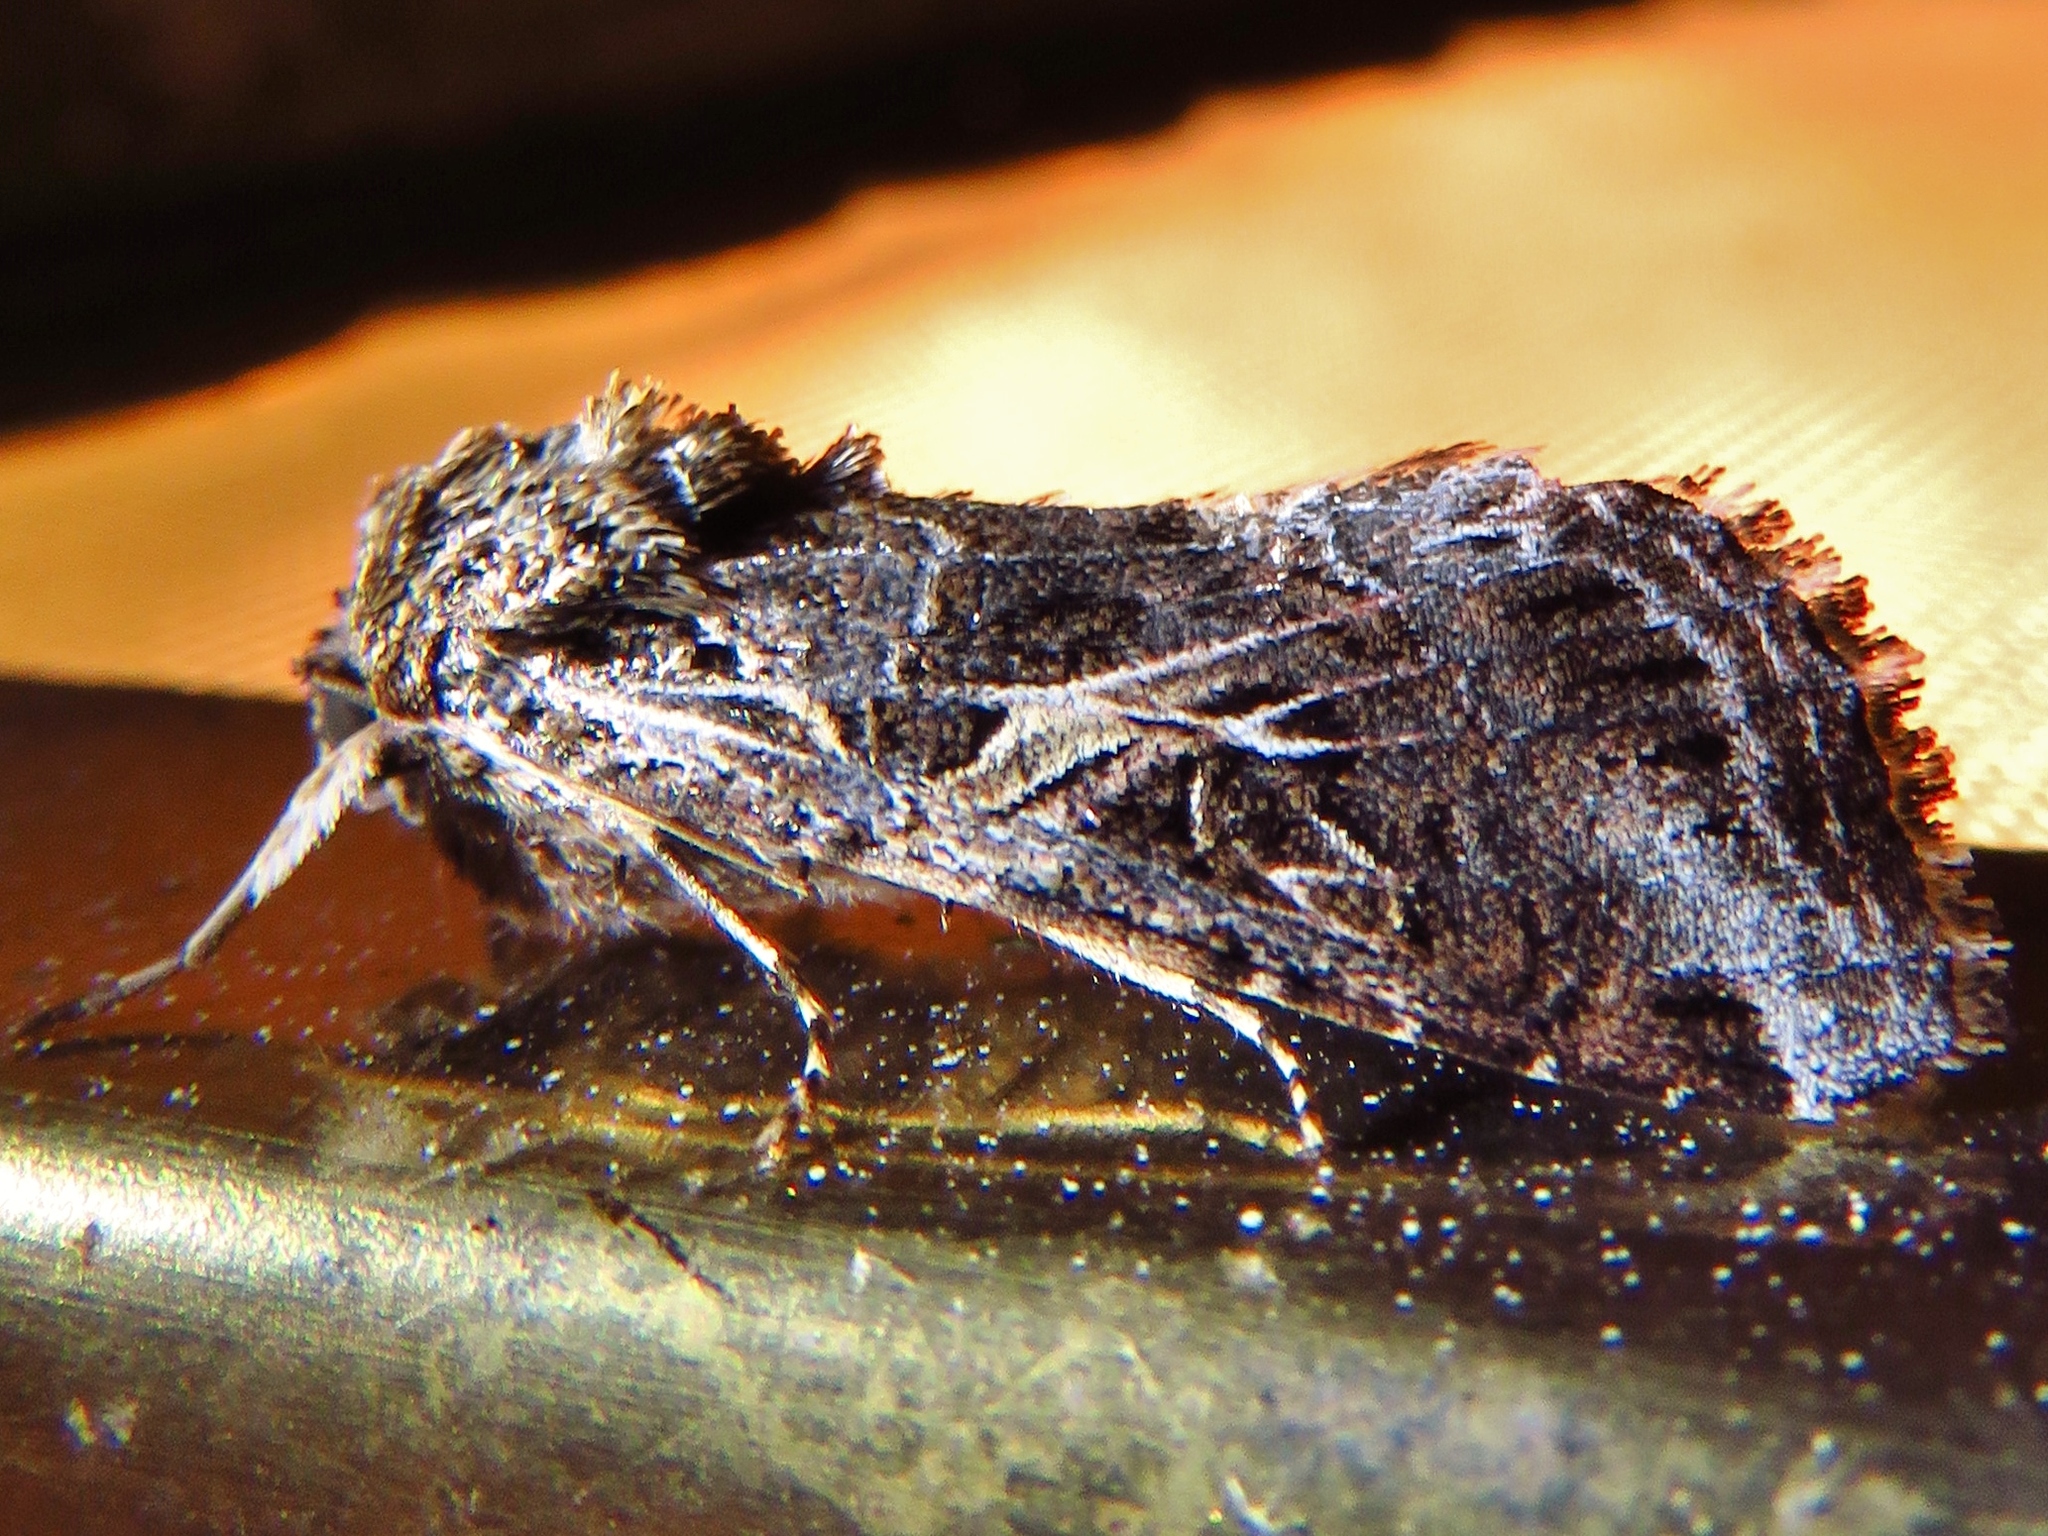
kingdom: Animalia
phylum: Arthropoda
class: Insecta
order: Lepidoptera
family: Noctuidae
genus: Spodoptera
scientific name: Spodoptera ornithogalli
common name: Yellow-striped armyworm
